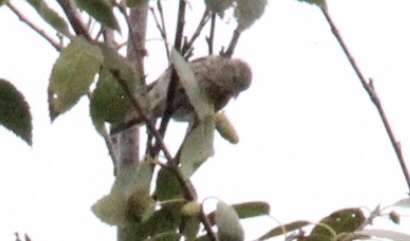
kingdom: Animalia
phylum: Chordata
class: Aves
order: Passeriformes
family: Fringillidae
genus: Spinus
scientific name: Spinus pinus
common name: Pine siskin
